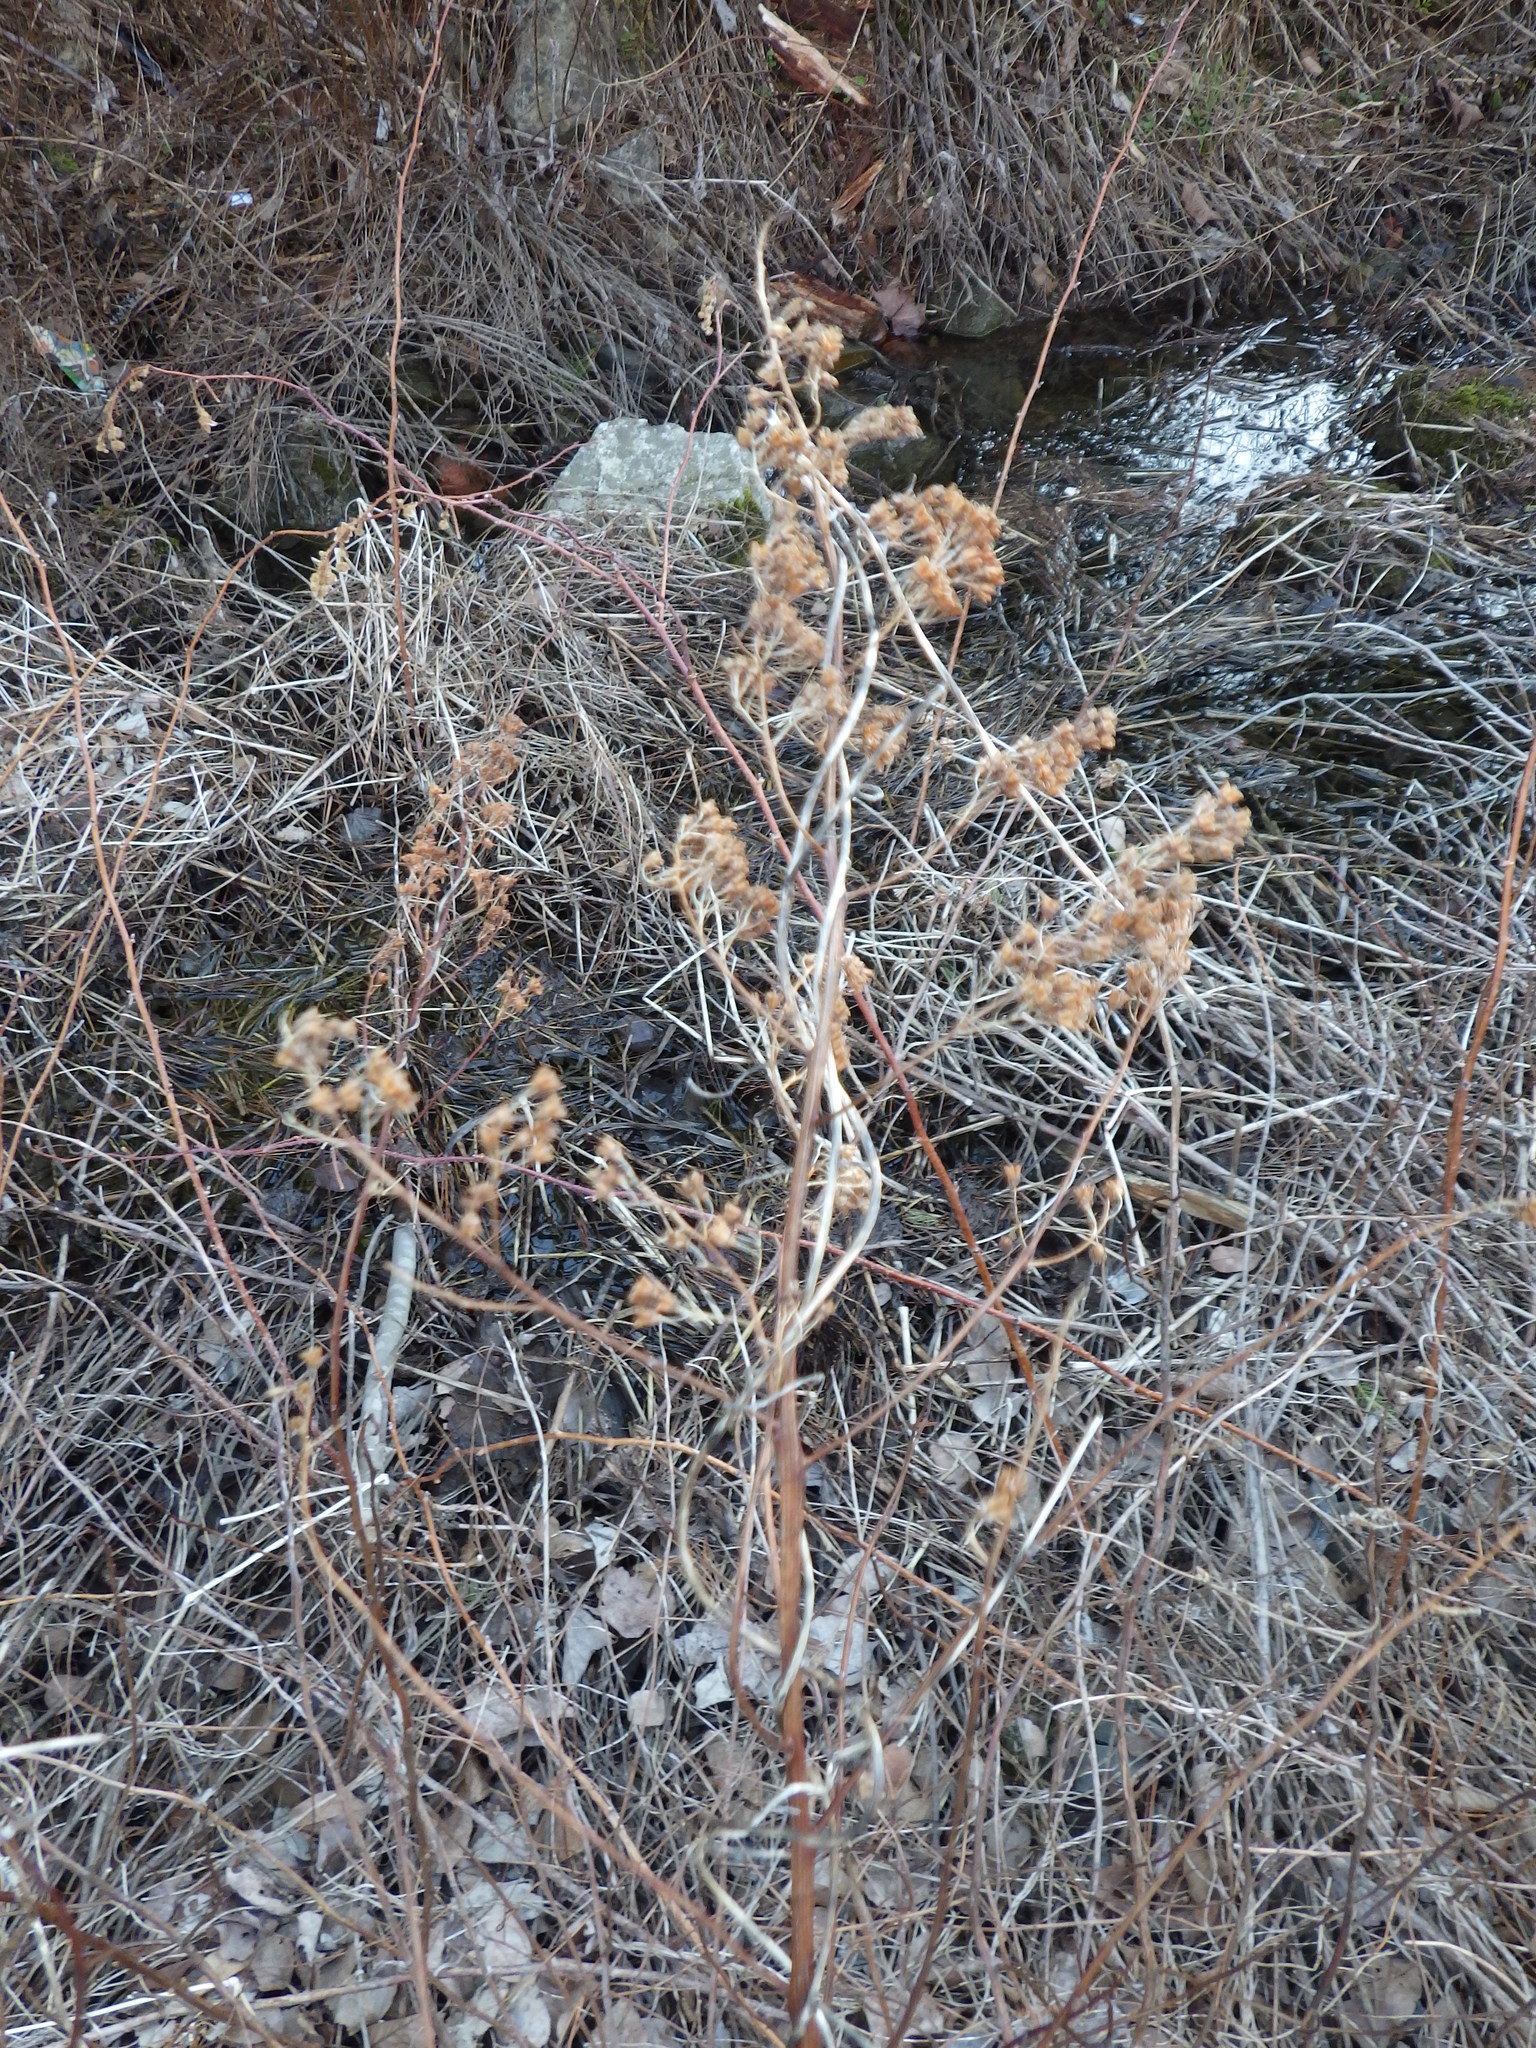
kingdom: Plantae
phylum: Tracheophyta
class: Magnoliopsida
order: Rosales
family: Rosaceae
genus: Spiraea
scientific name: Spiraea alba
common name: Pale bridewort
